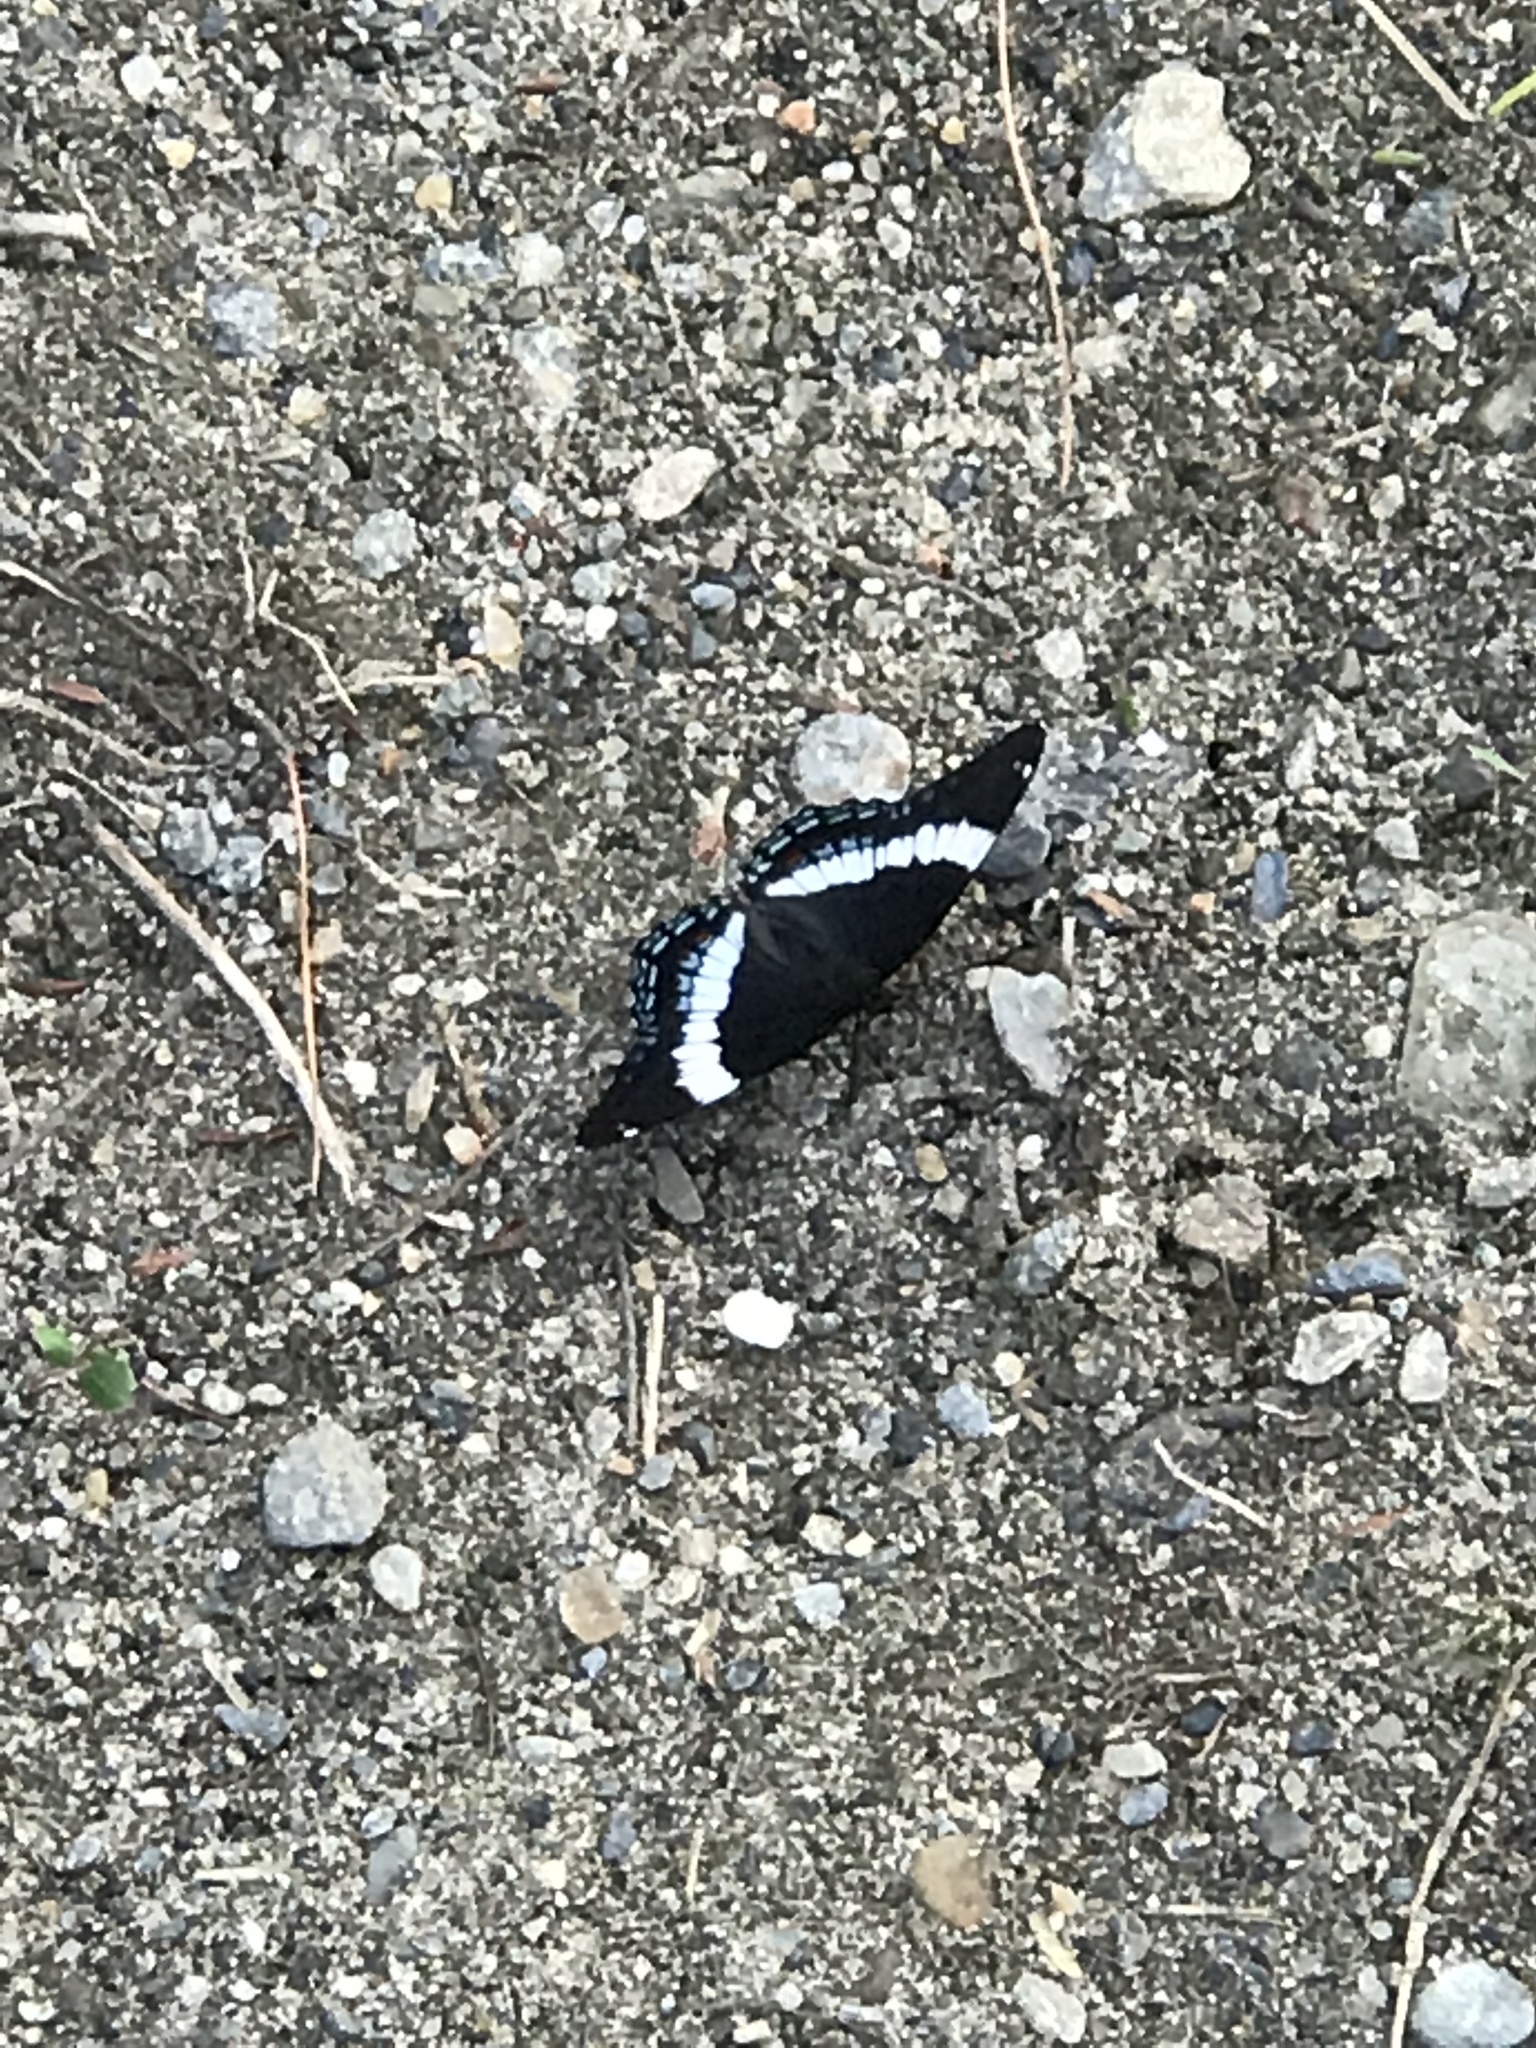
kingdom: Animalia
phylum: Arthropoda
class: Insecta
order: Lepidoptera
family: Nymphalidae
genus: Limenitis
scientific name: Limenitis arthemis
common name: Red-spotted admiral
